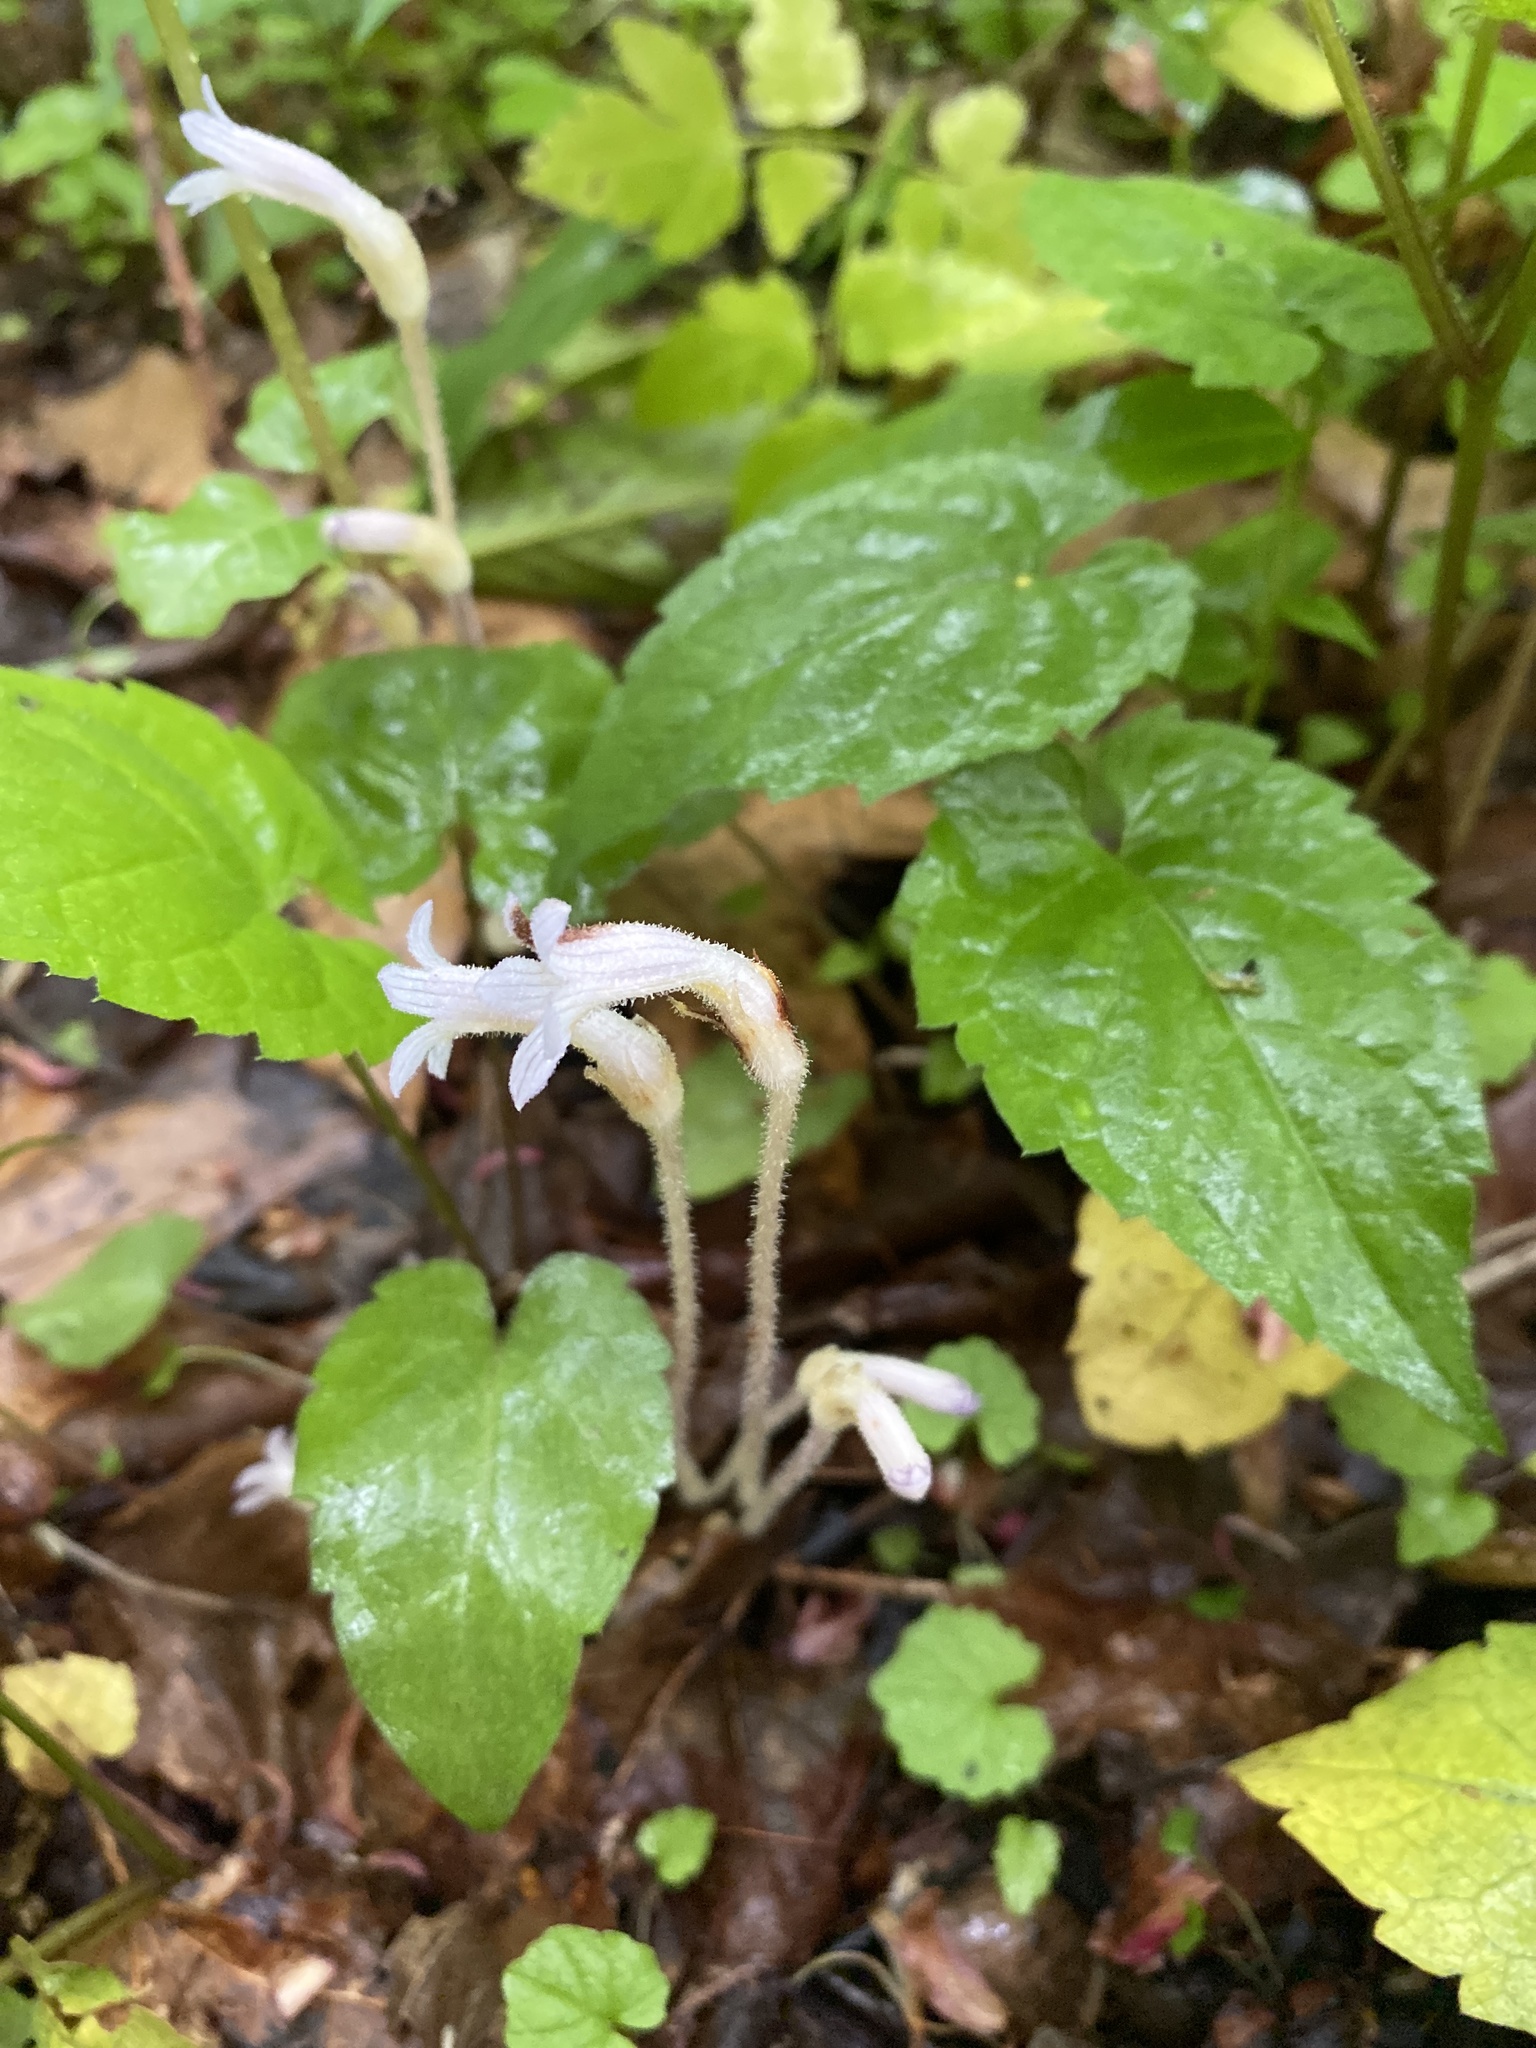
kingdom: Plantae
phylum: Tracheophyta
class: Magnoliopsida
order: Lamiales
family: Orobanchaceae
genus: Aphyllon
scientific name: Aphyllon uniflorum
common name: One-flowered broomrape
